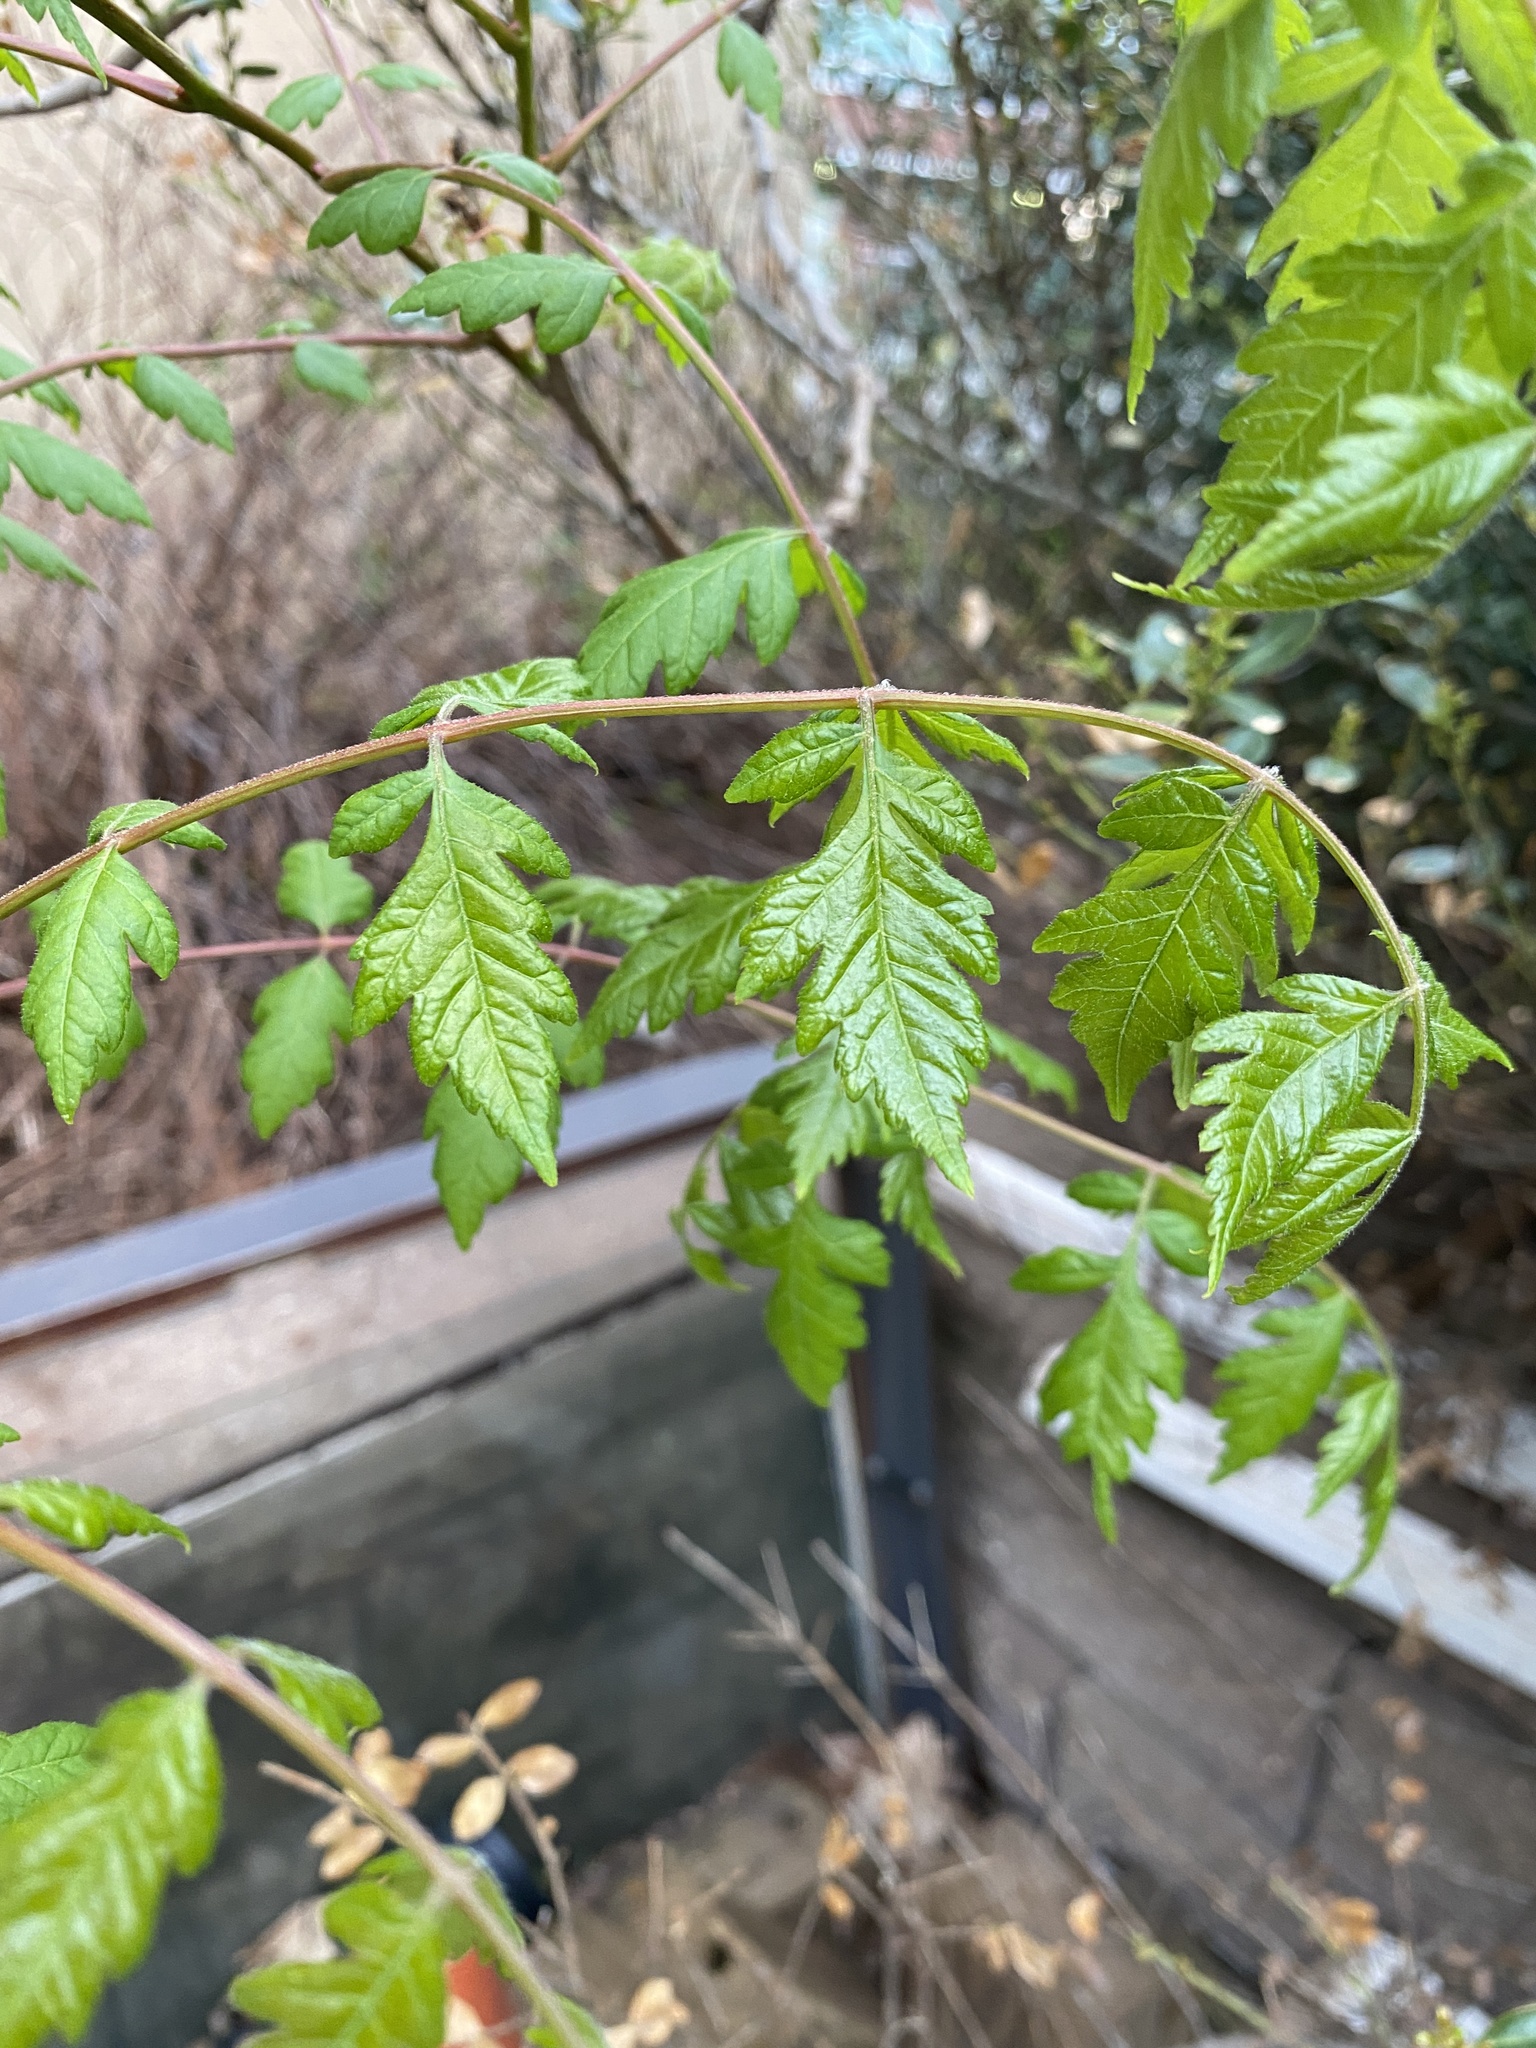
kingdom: Plantae
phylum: Tracheophyta
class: Magnoliopsida
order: Sapindales
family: Sapindaceae
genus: Koelreuteria
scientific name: Koelreuteria paniculata
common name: Pride-of-india
